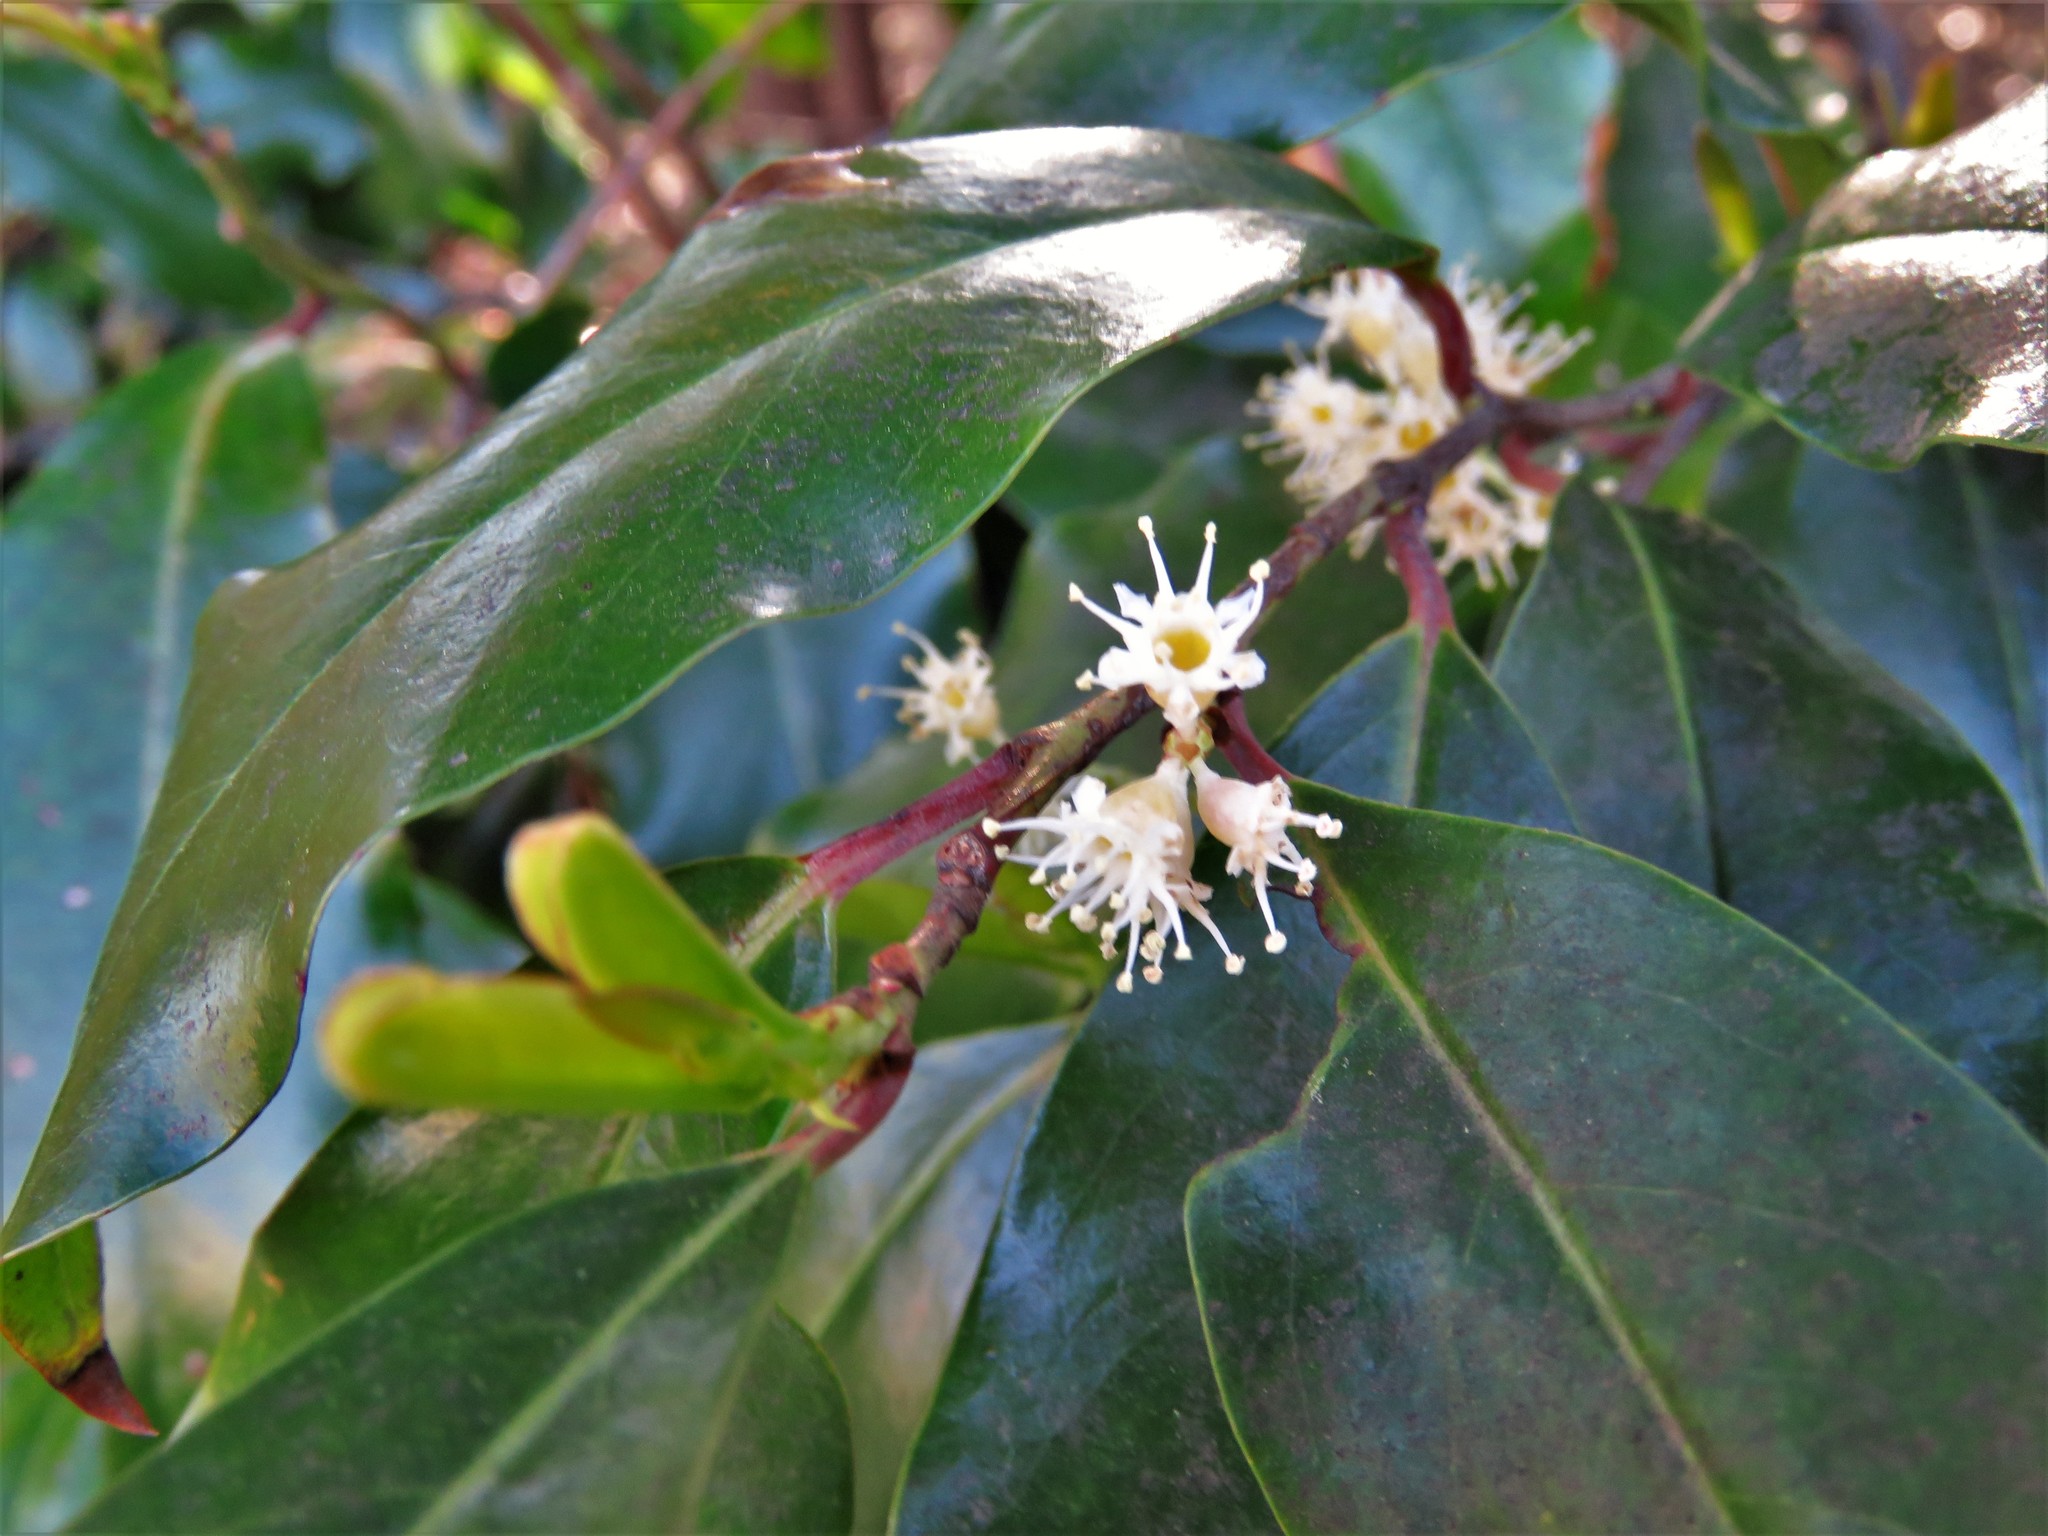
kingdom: Plantae
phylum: Tracheophyta
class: Magnoliopsida
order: Rosales
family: Rosaceae
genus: Prunus
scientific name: Prunus caroliniana
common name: Carolina laurel cherry
